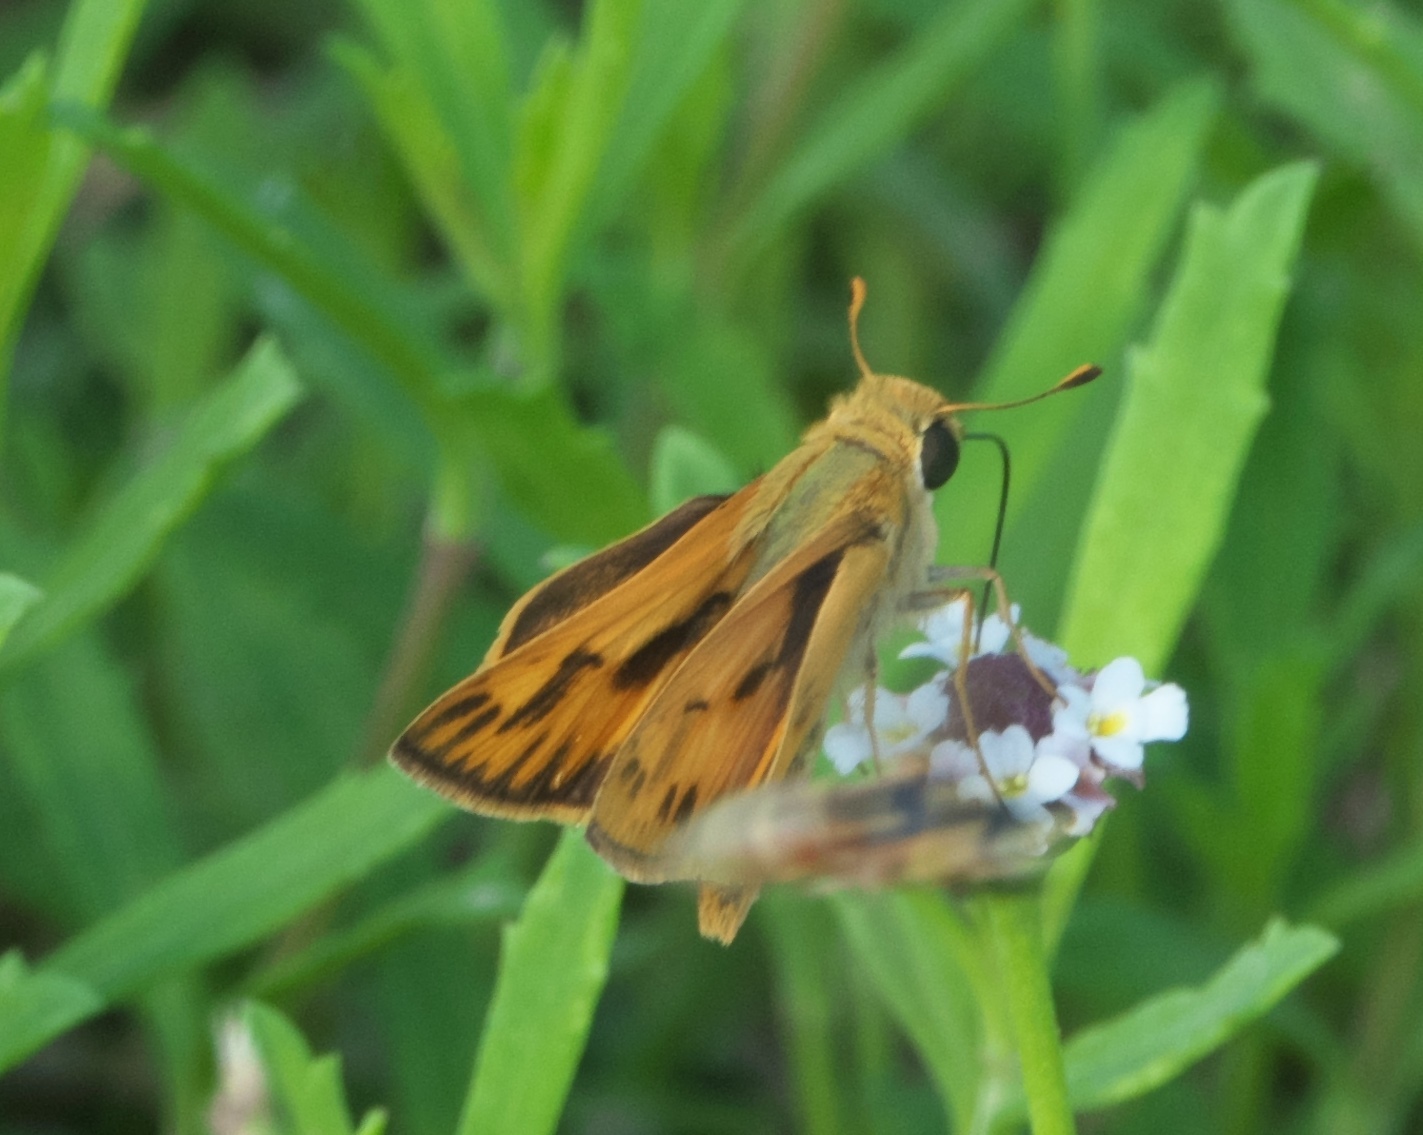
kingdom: Animalia
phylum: Arthropoda
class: Insecta
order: Lepidoptera
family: Hesperiidae
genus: Hylephila
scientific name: Hylephila phyleus
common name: Fiery skipper
